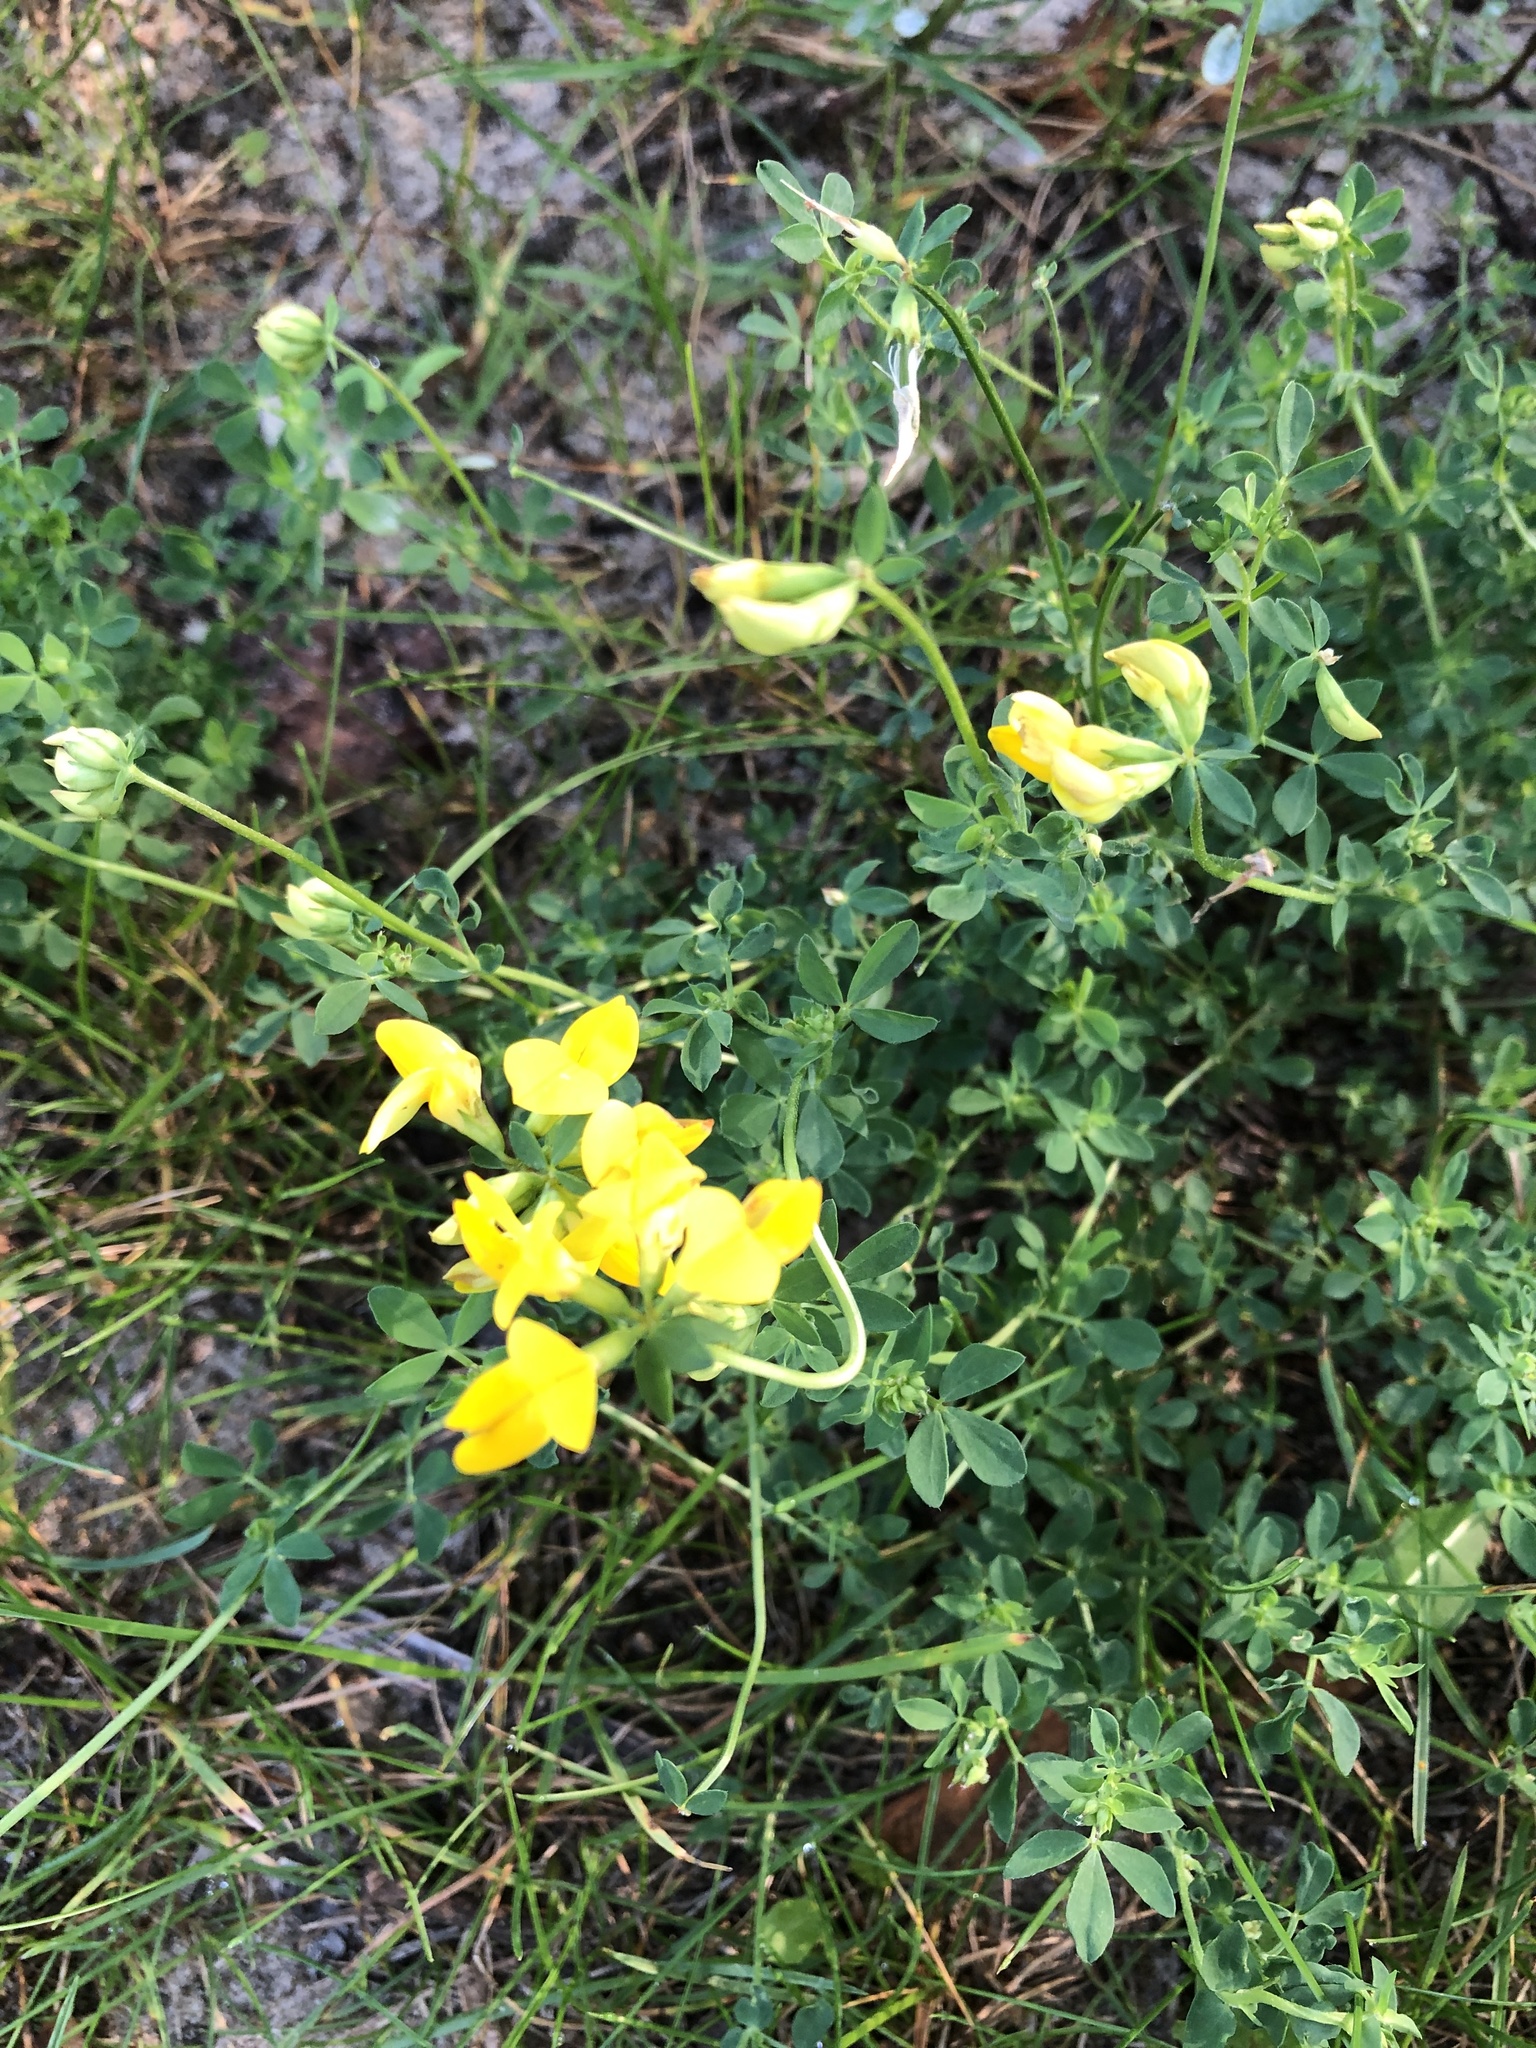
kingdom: Plantae
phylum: Tracheophyta
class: Magnoliopsida
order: Fabales
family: Fabaceae
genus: Lotus
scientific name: Lotus corniculatus
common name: Common bird's-foot-trefoil
